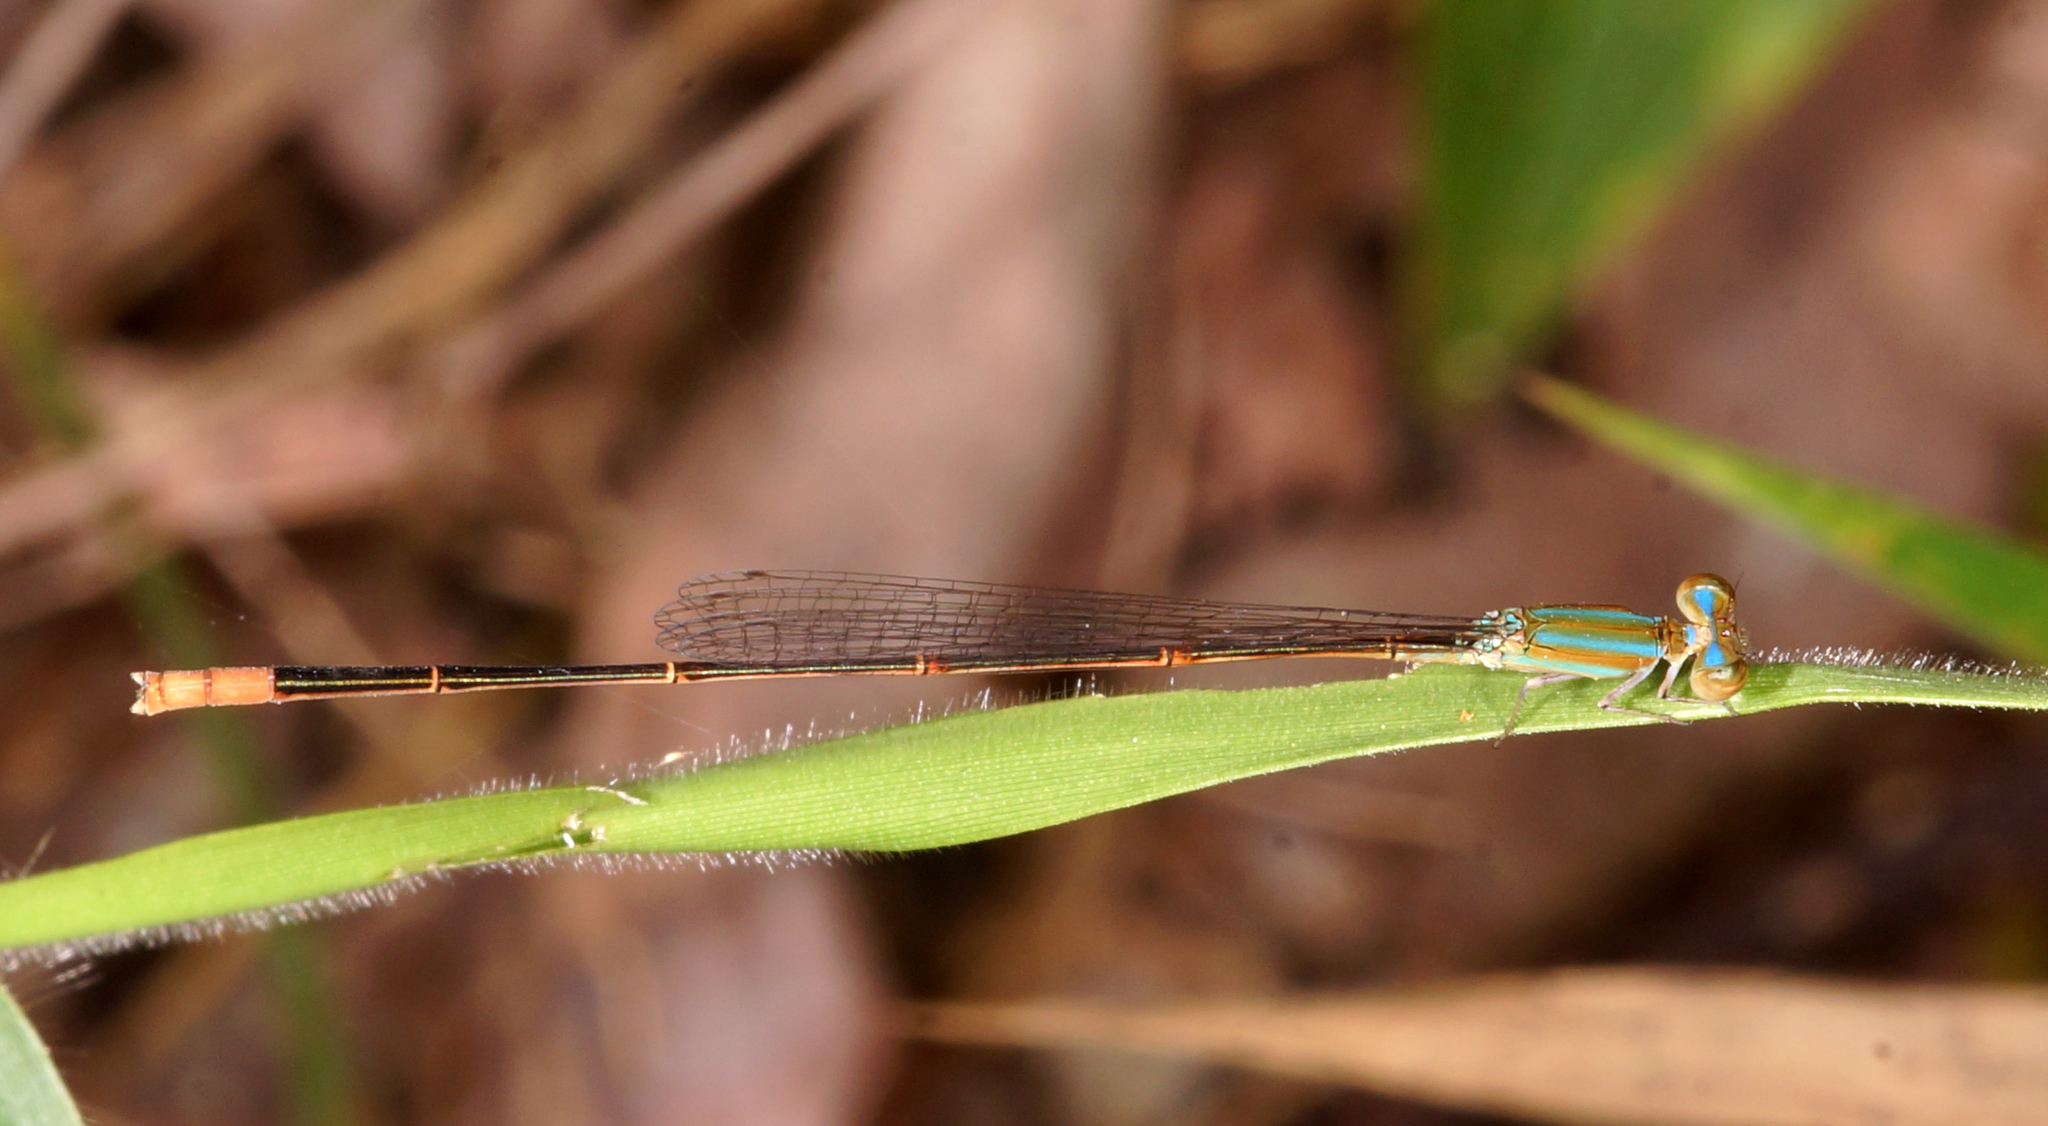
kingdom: Animalia
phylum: Arthropoda
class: Insecta
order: Odonata
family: Coenagrionidae
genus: Aciagrion
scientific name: Aciagrion pallidum
